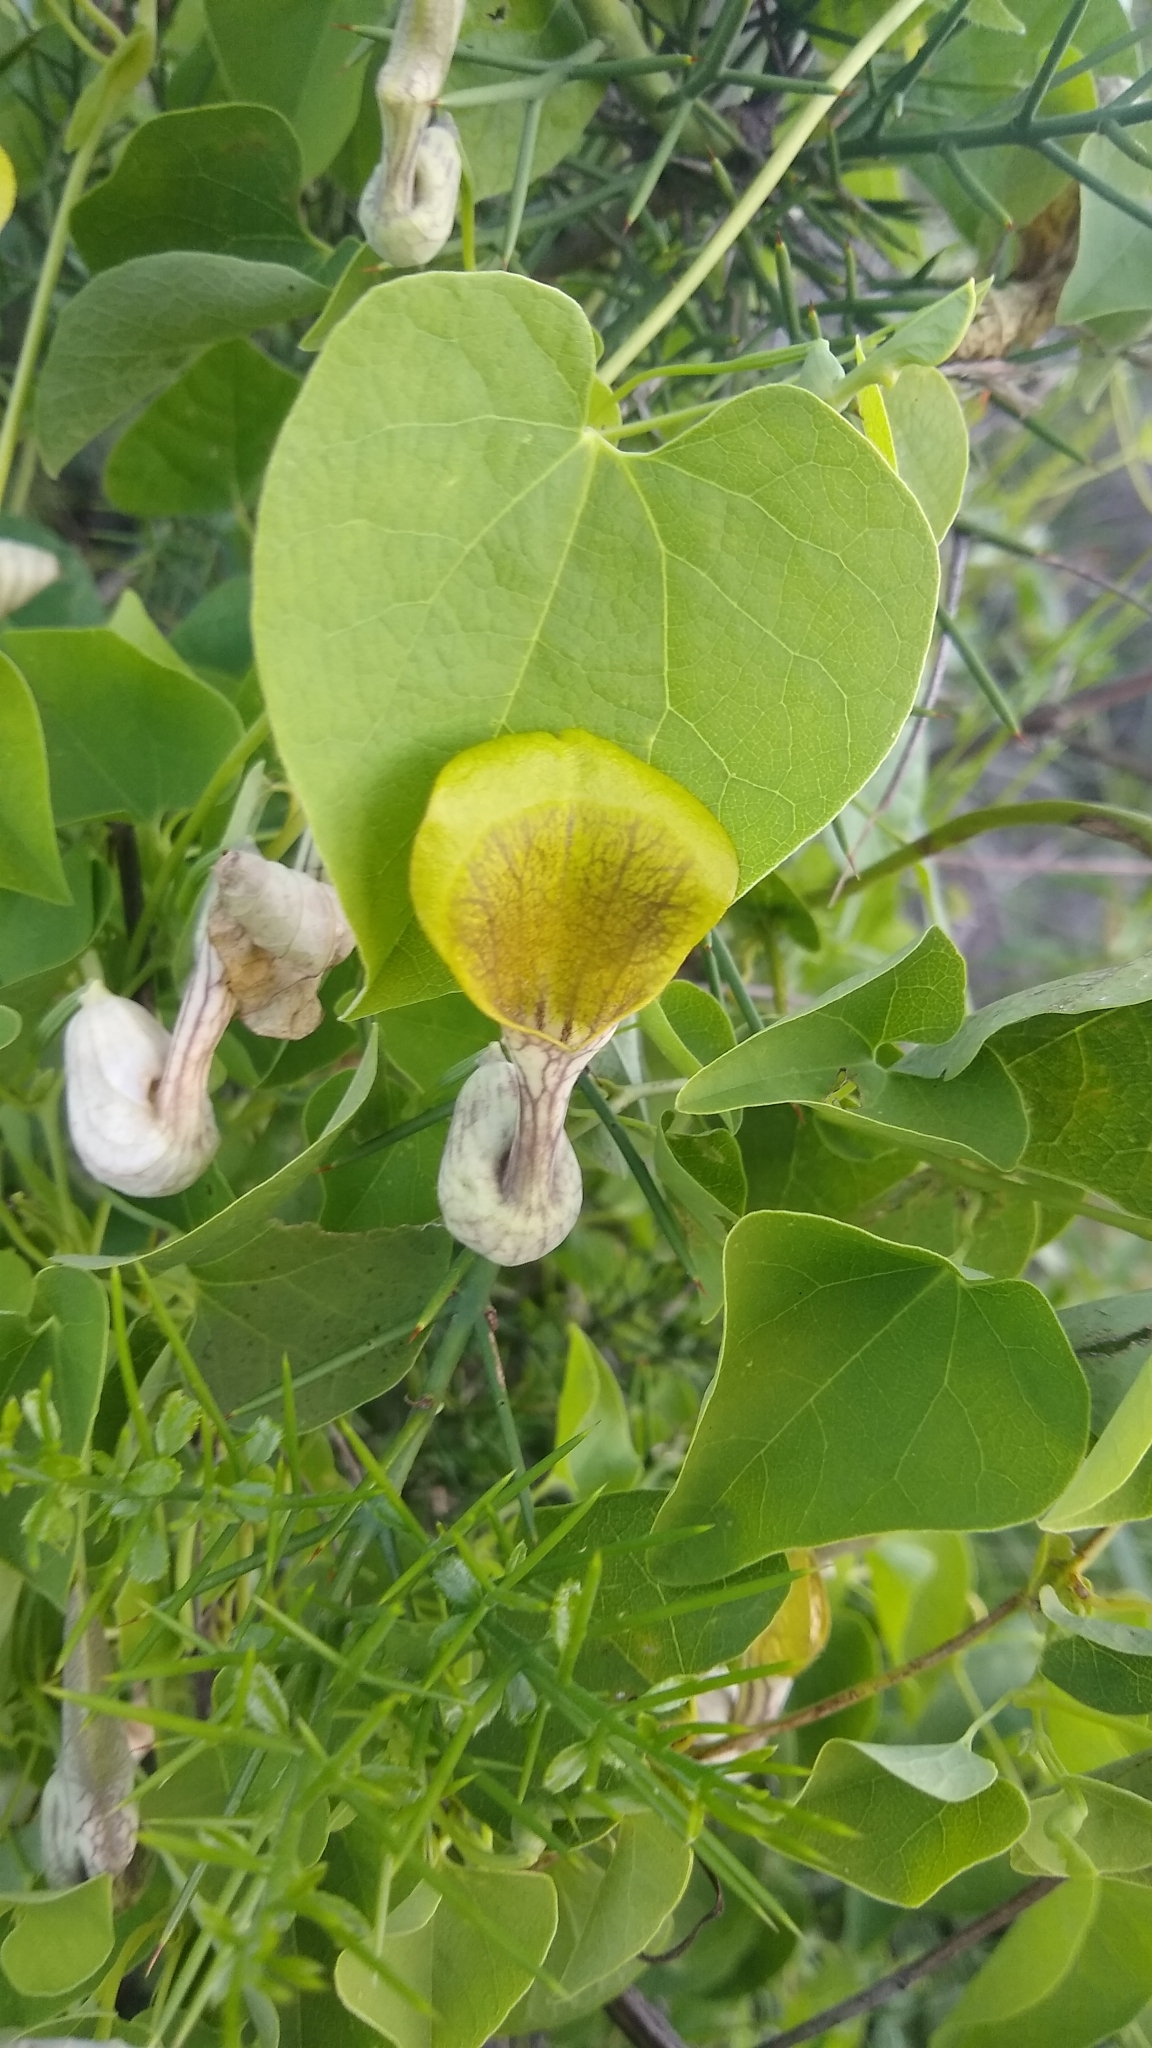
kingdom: Plantae
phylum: Tracheophyta
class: Magnoliopsida
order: Piperales
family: Aristolochiaceae
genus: Aristolochia
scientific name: Aristolochia argentina
